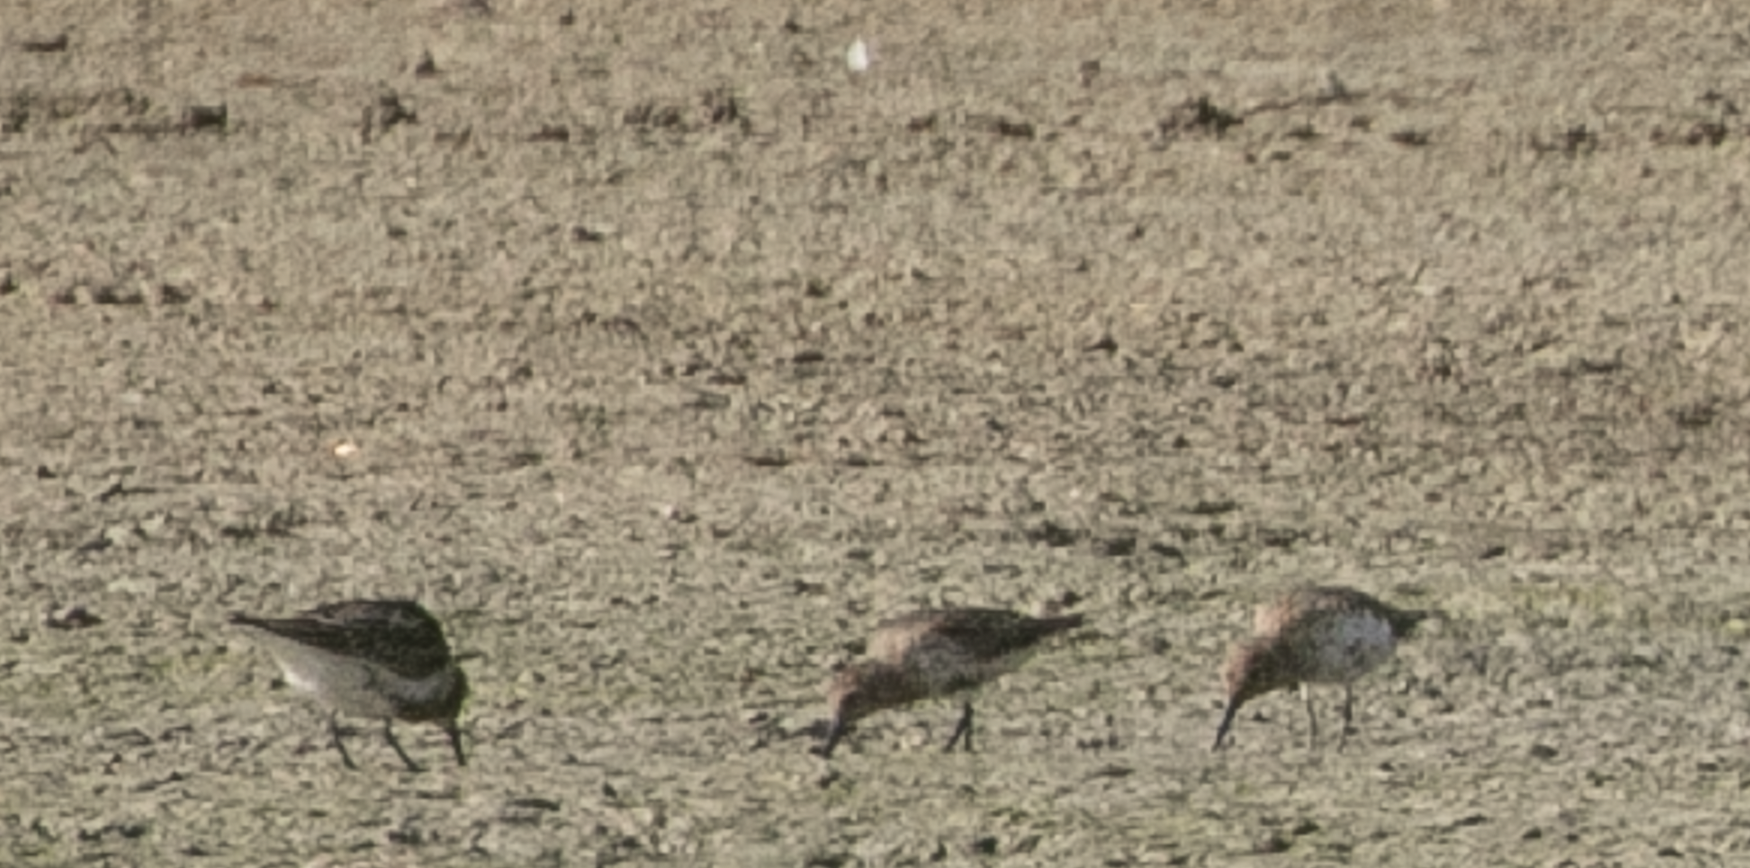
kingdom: Animalia
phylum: Chordata
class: Aves
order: Charadriiformes
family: Scolopacidae
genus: Calidris
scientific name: Calidris alpina
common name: Dunlin
